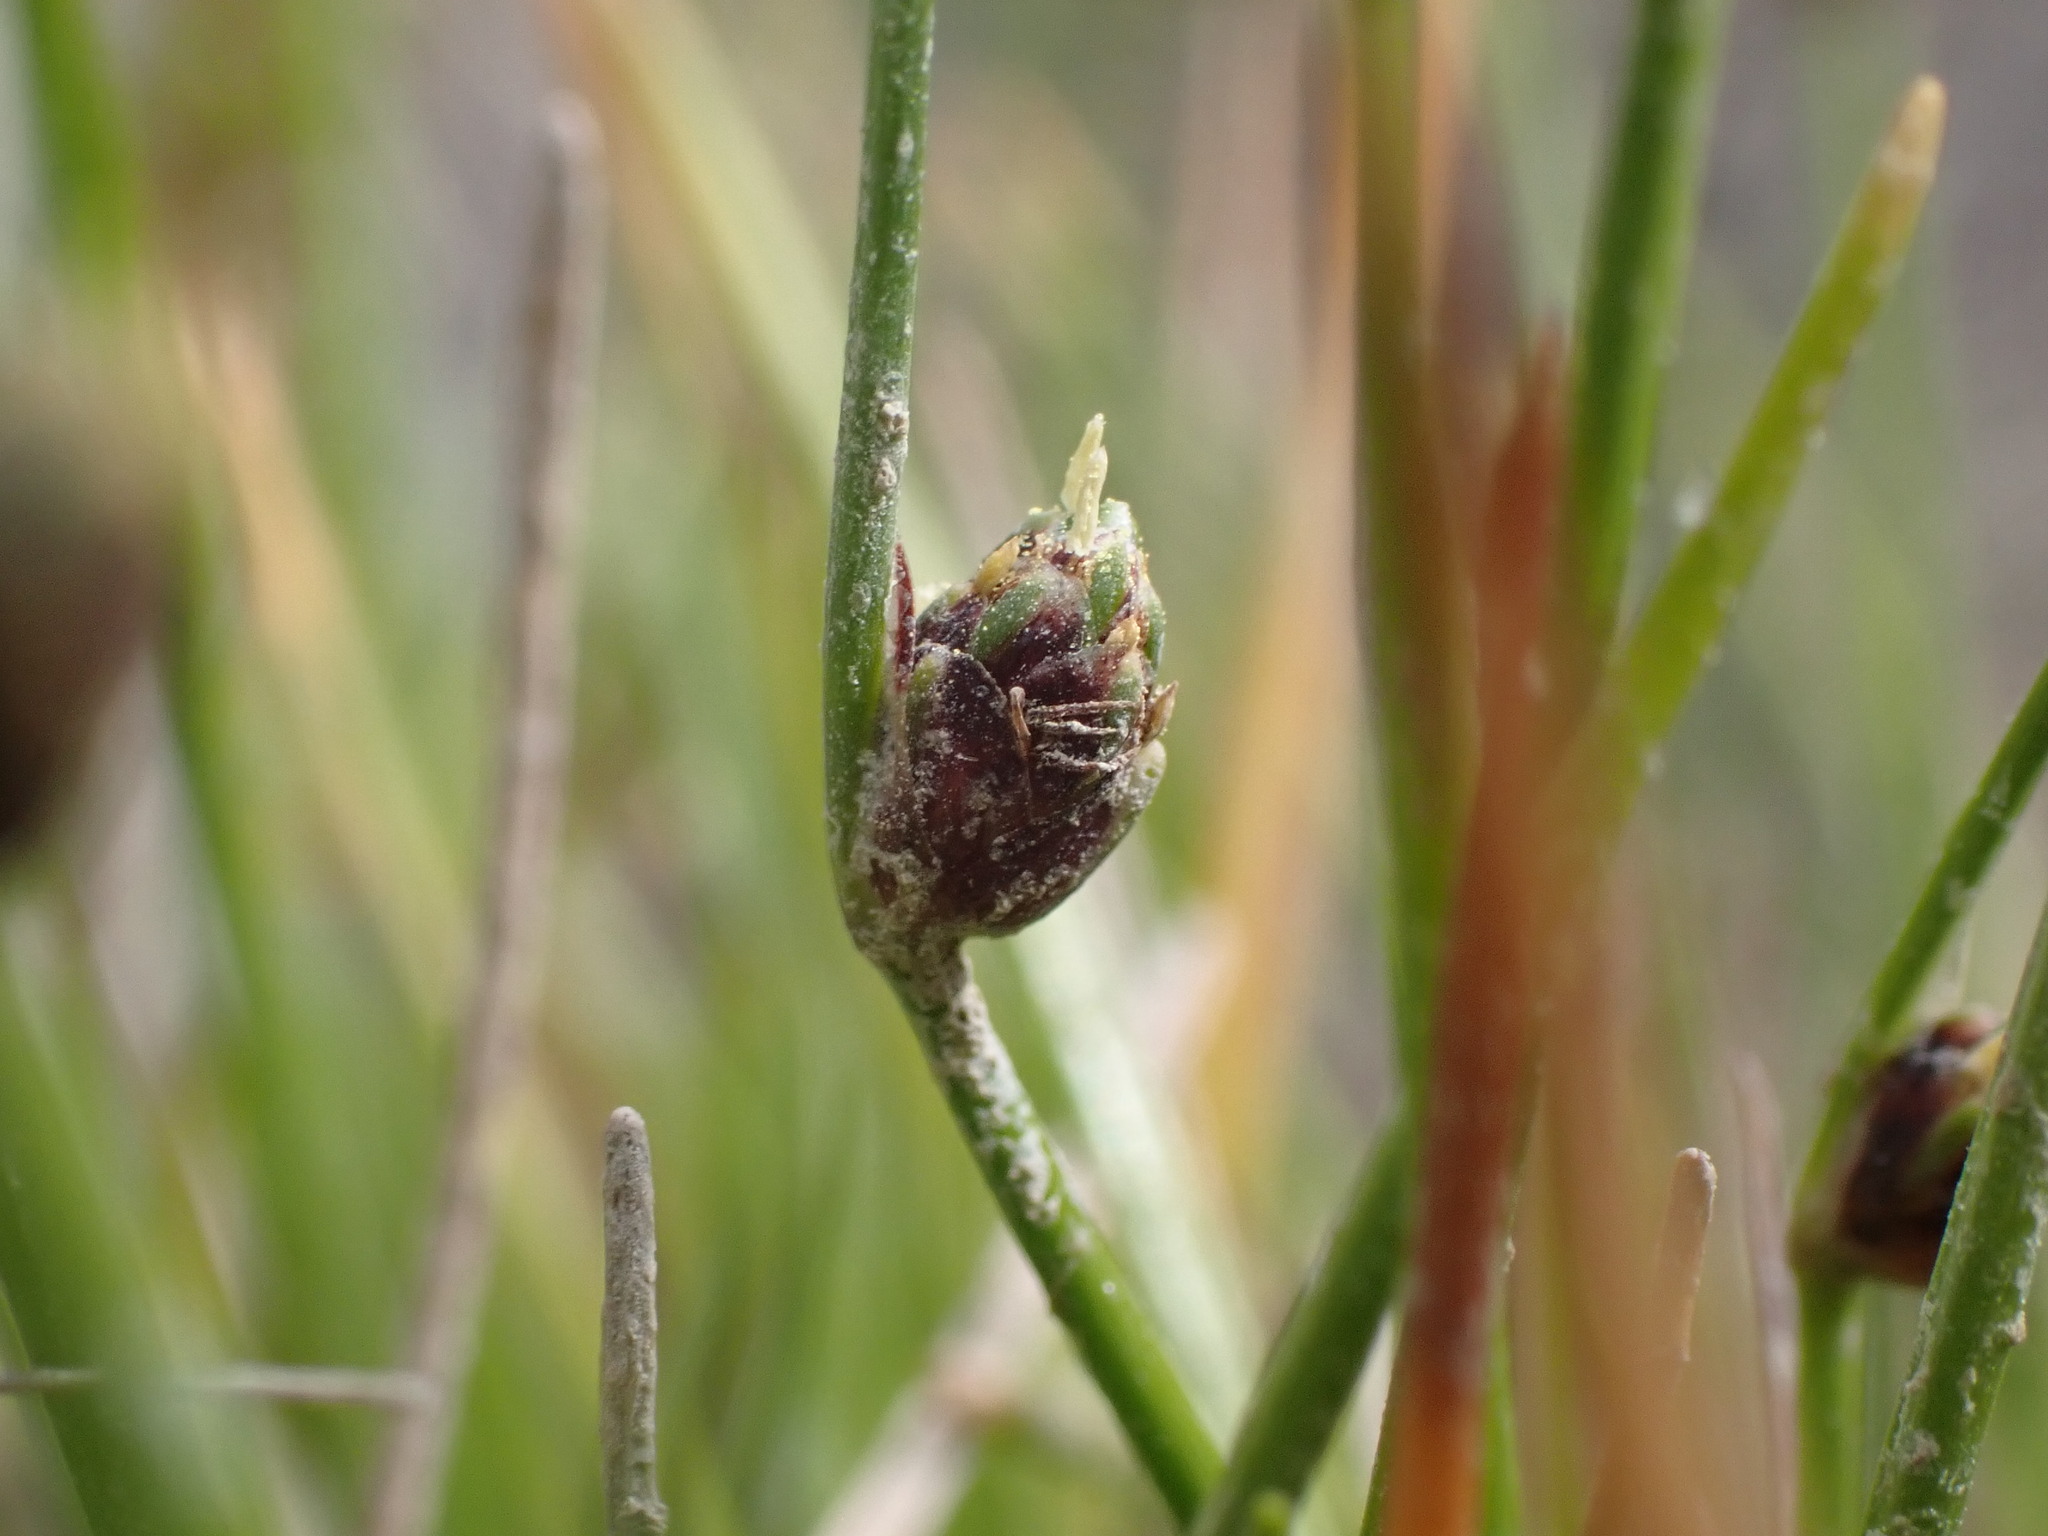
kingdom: Plantae
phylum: Tracheophyta
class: Liliopsida
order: Poales
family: Cyperaceae
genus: Isolepis
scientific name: Isolepis cernua
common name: Slender club-rush
